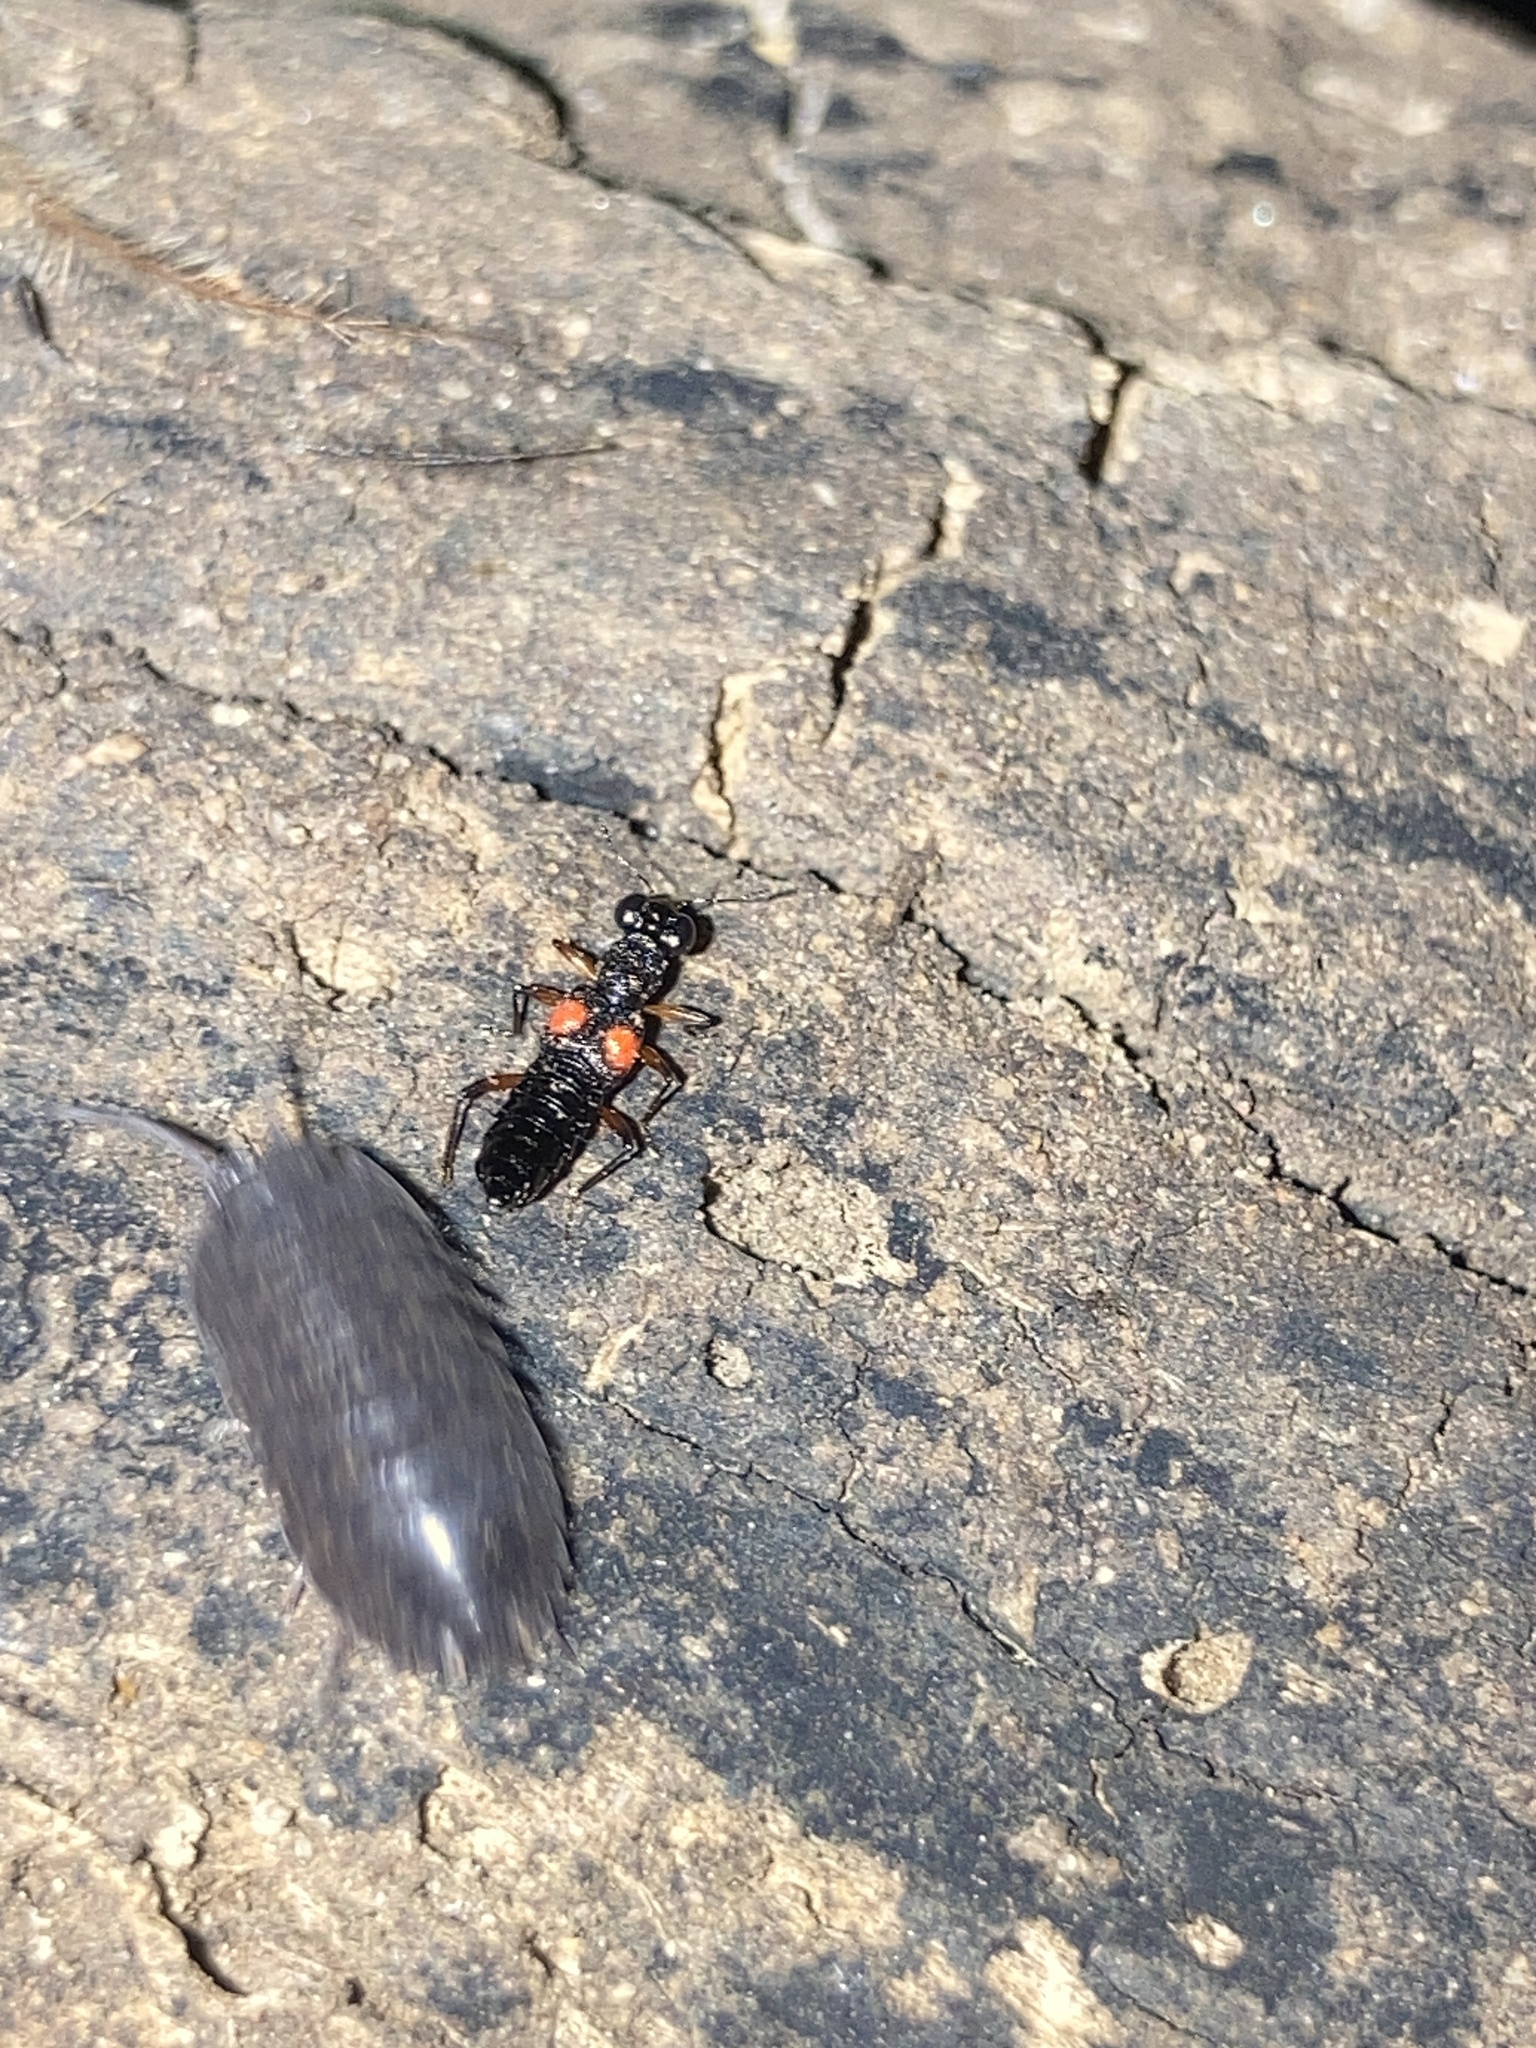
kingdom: Animalia
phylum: Arthropoda
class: Insecta
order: Coleoptera
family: Staphylinidae
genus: Stenus
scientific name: Stenus pustulifer
